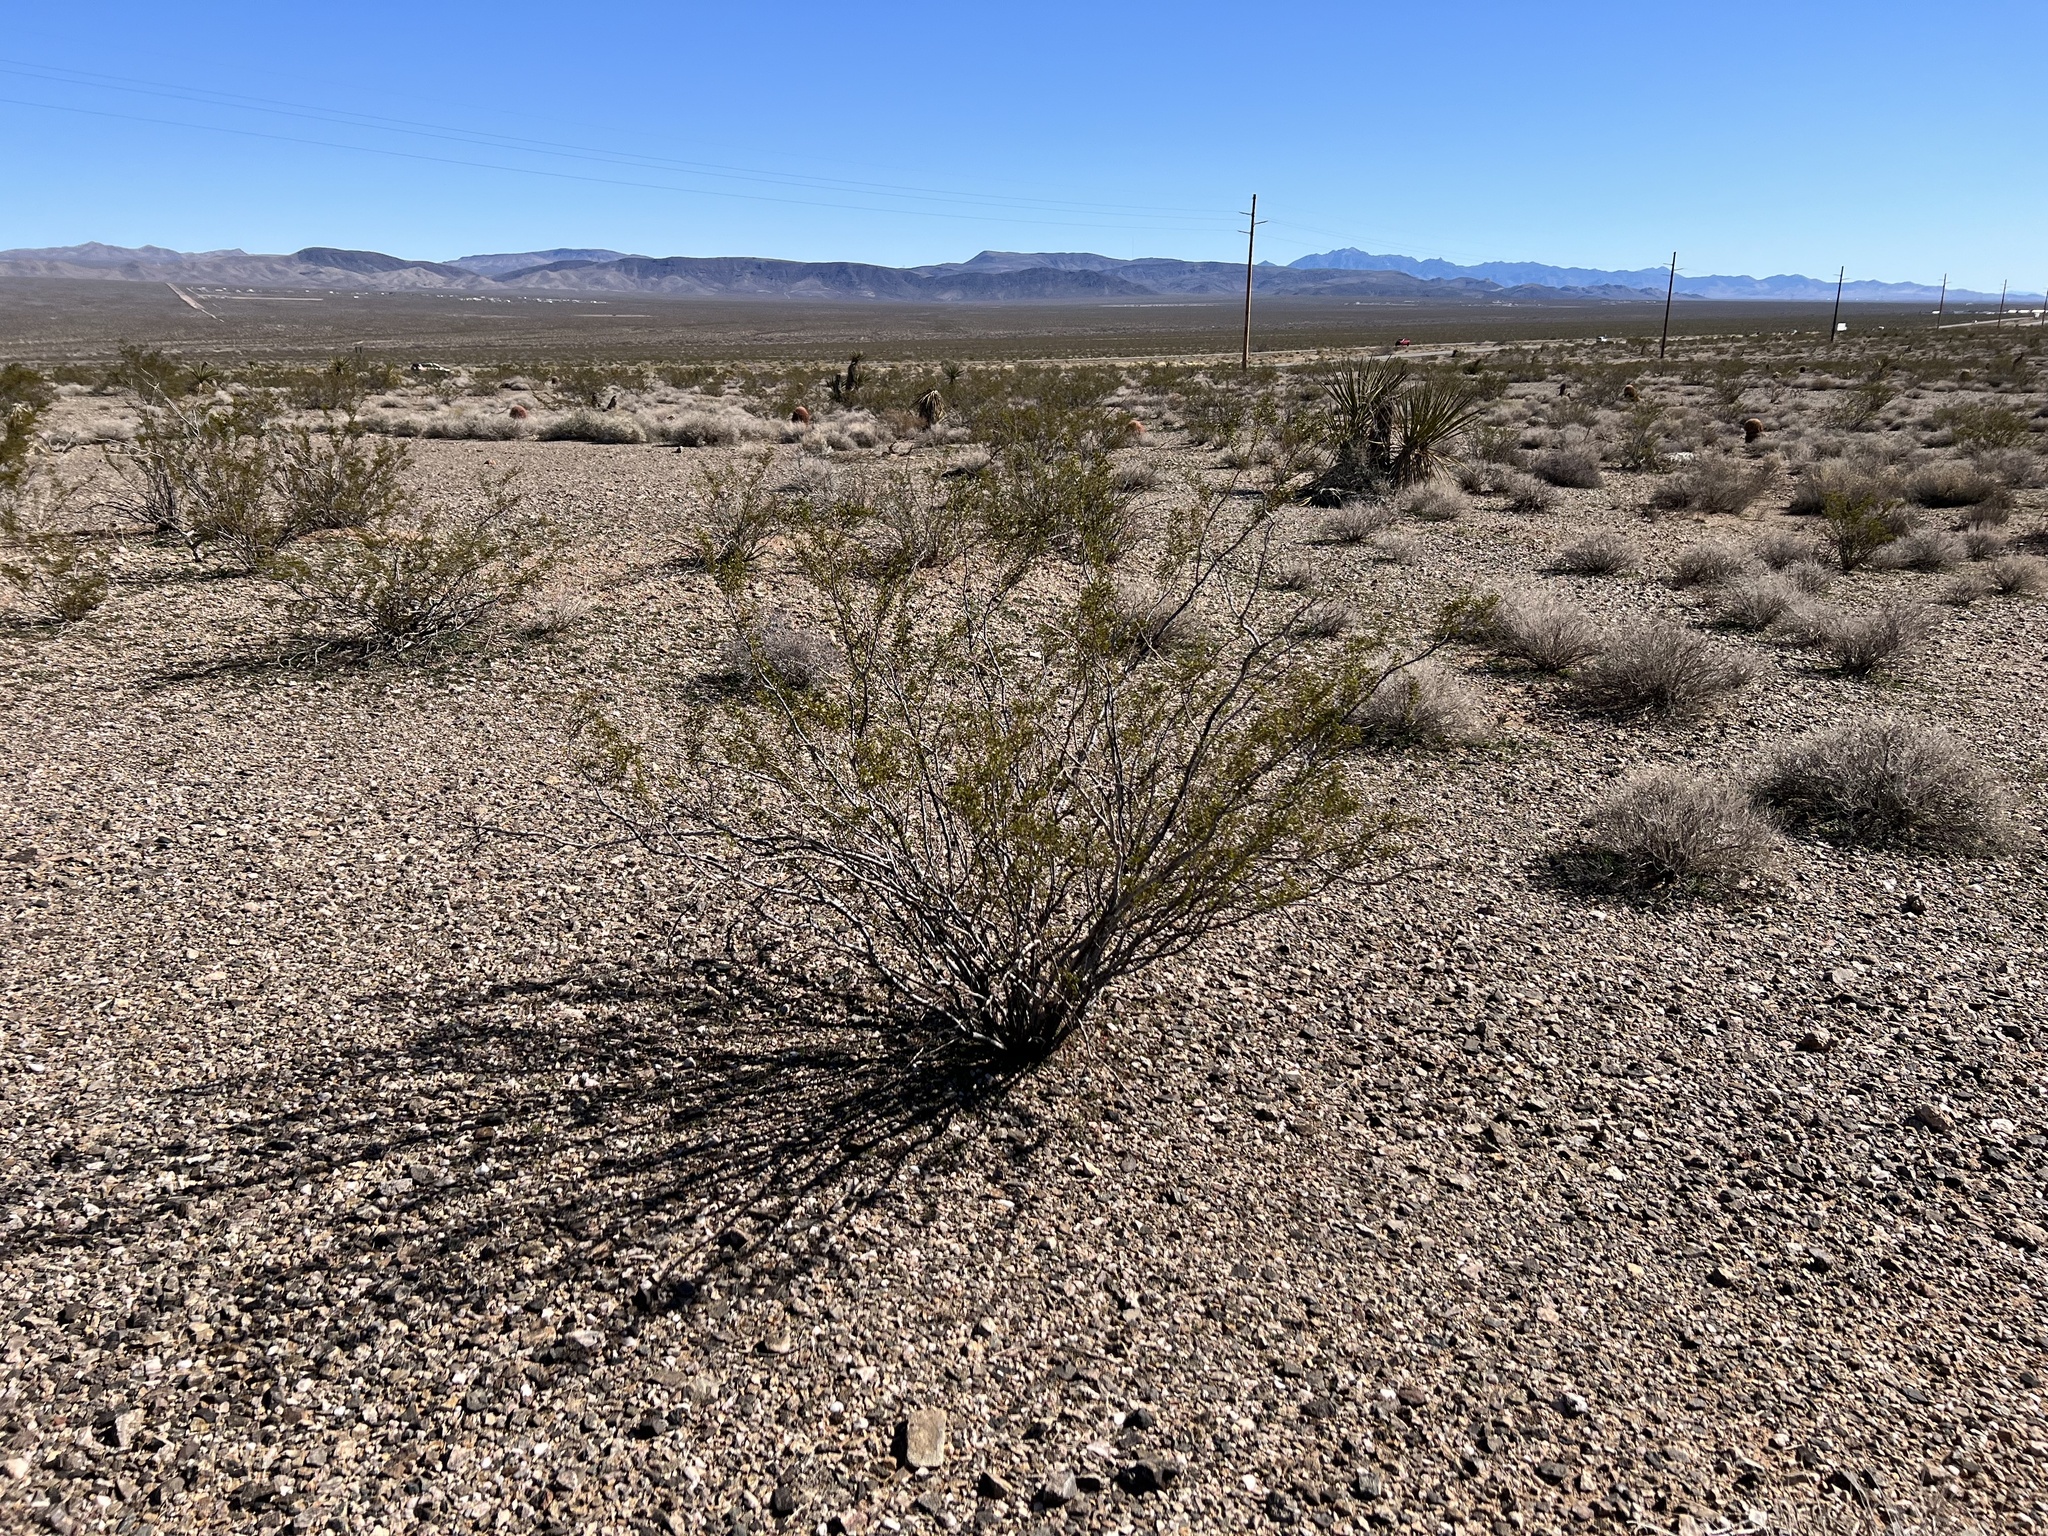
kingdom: Plantae
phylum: Tracheophyta
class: Magnoliopsida
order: Zygophyllales
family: Zygophyllaceae
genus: Larrea
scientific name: Larrea tridentata
